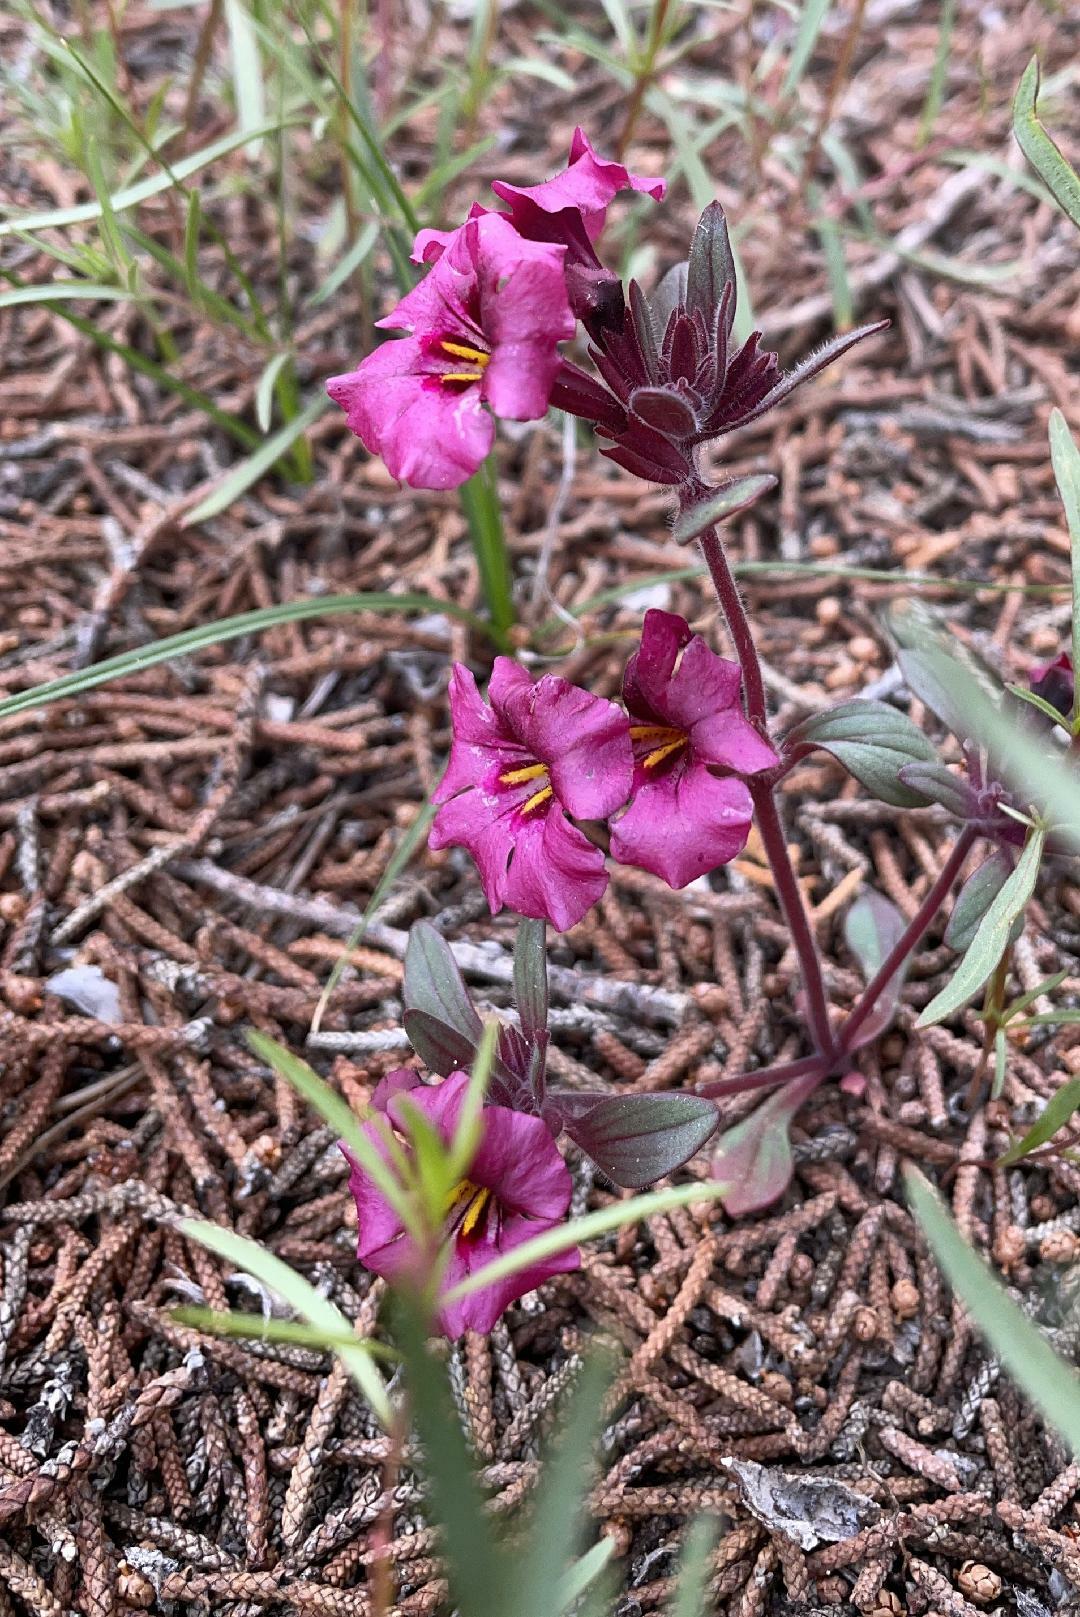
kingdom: Plantae
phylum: Tracheophyta
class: Magnoliopsida
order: Lamiales
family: Phrymaceae
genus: Diplacus
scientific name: Diplacus bicolor
